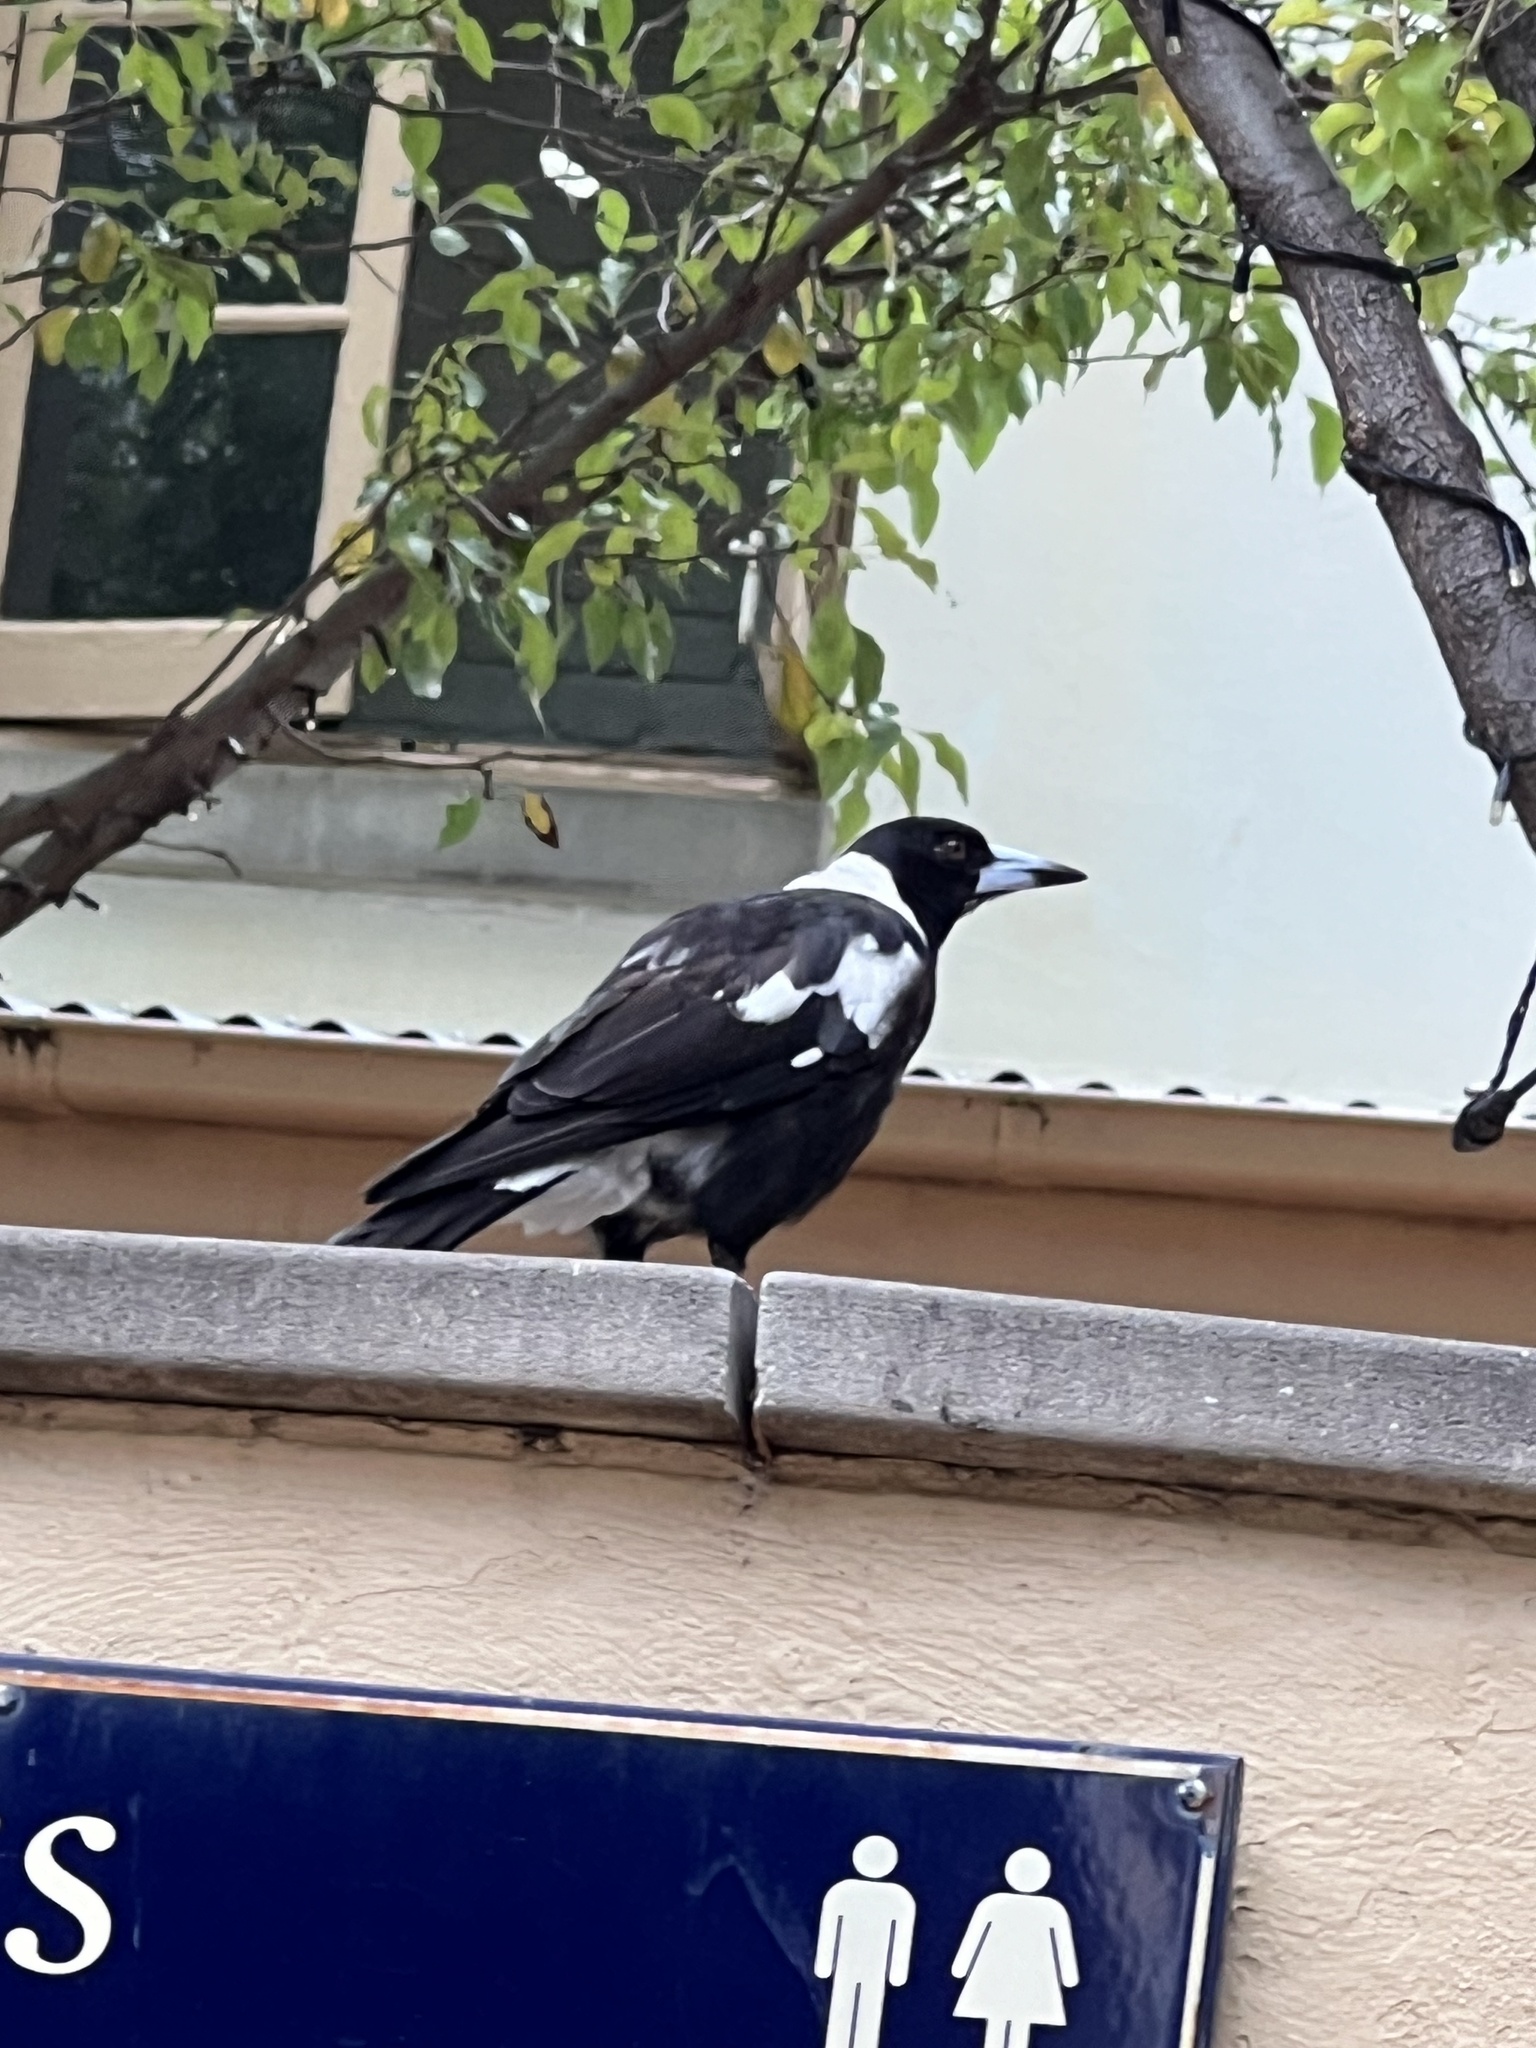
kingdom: Animalia
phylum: Chordata
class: Aves
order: Passeriformes
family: Cracticidae
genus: Gymnorhina
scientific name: Gymnorhina tibicen
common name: Australian magpie
